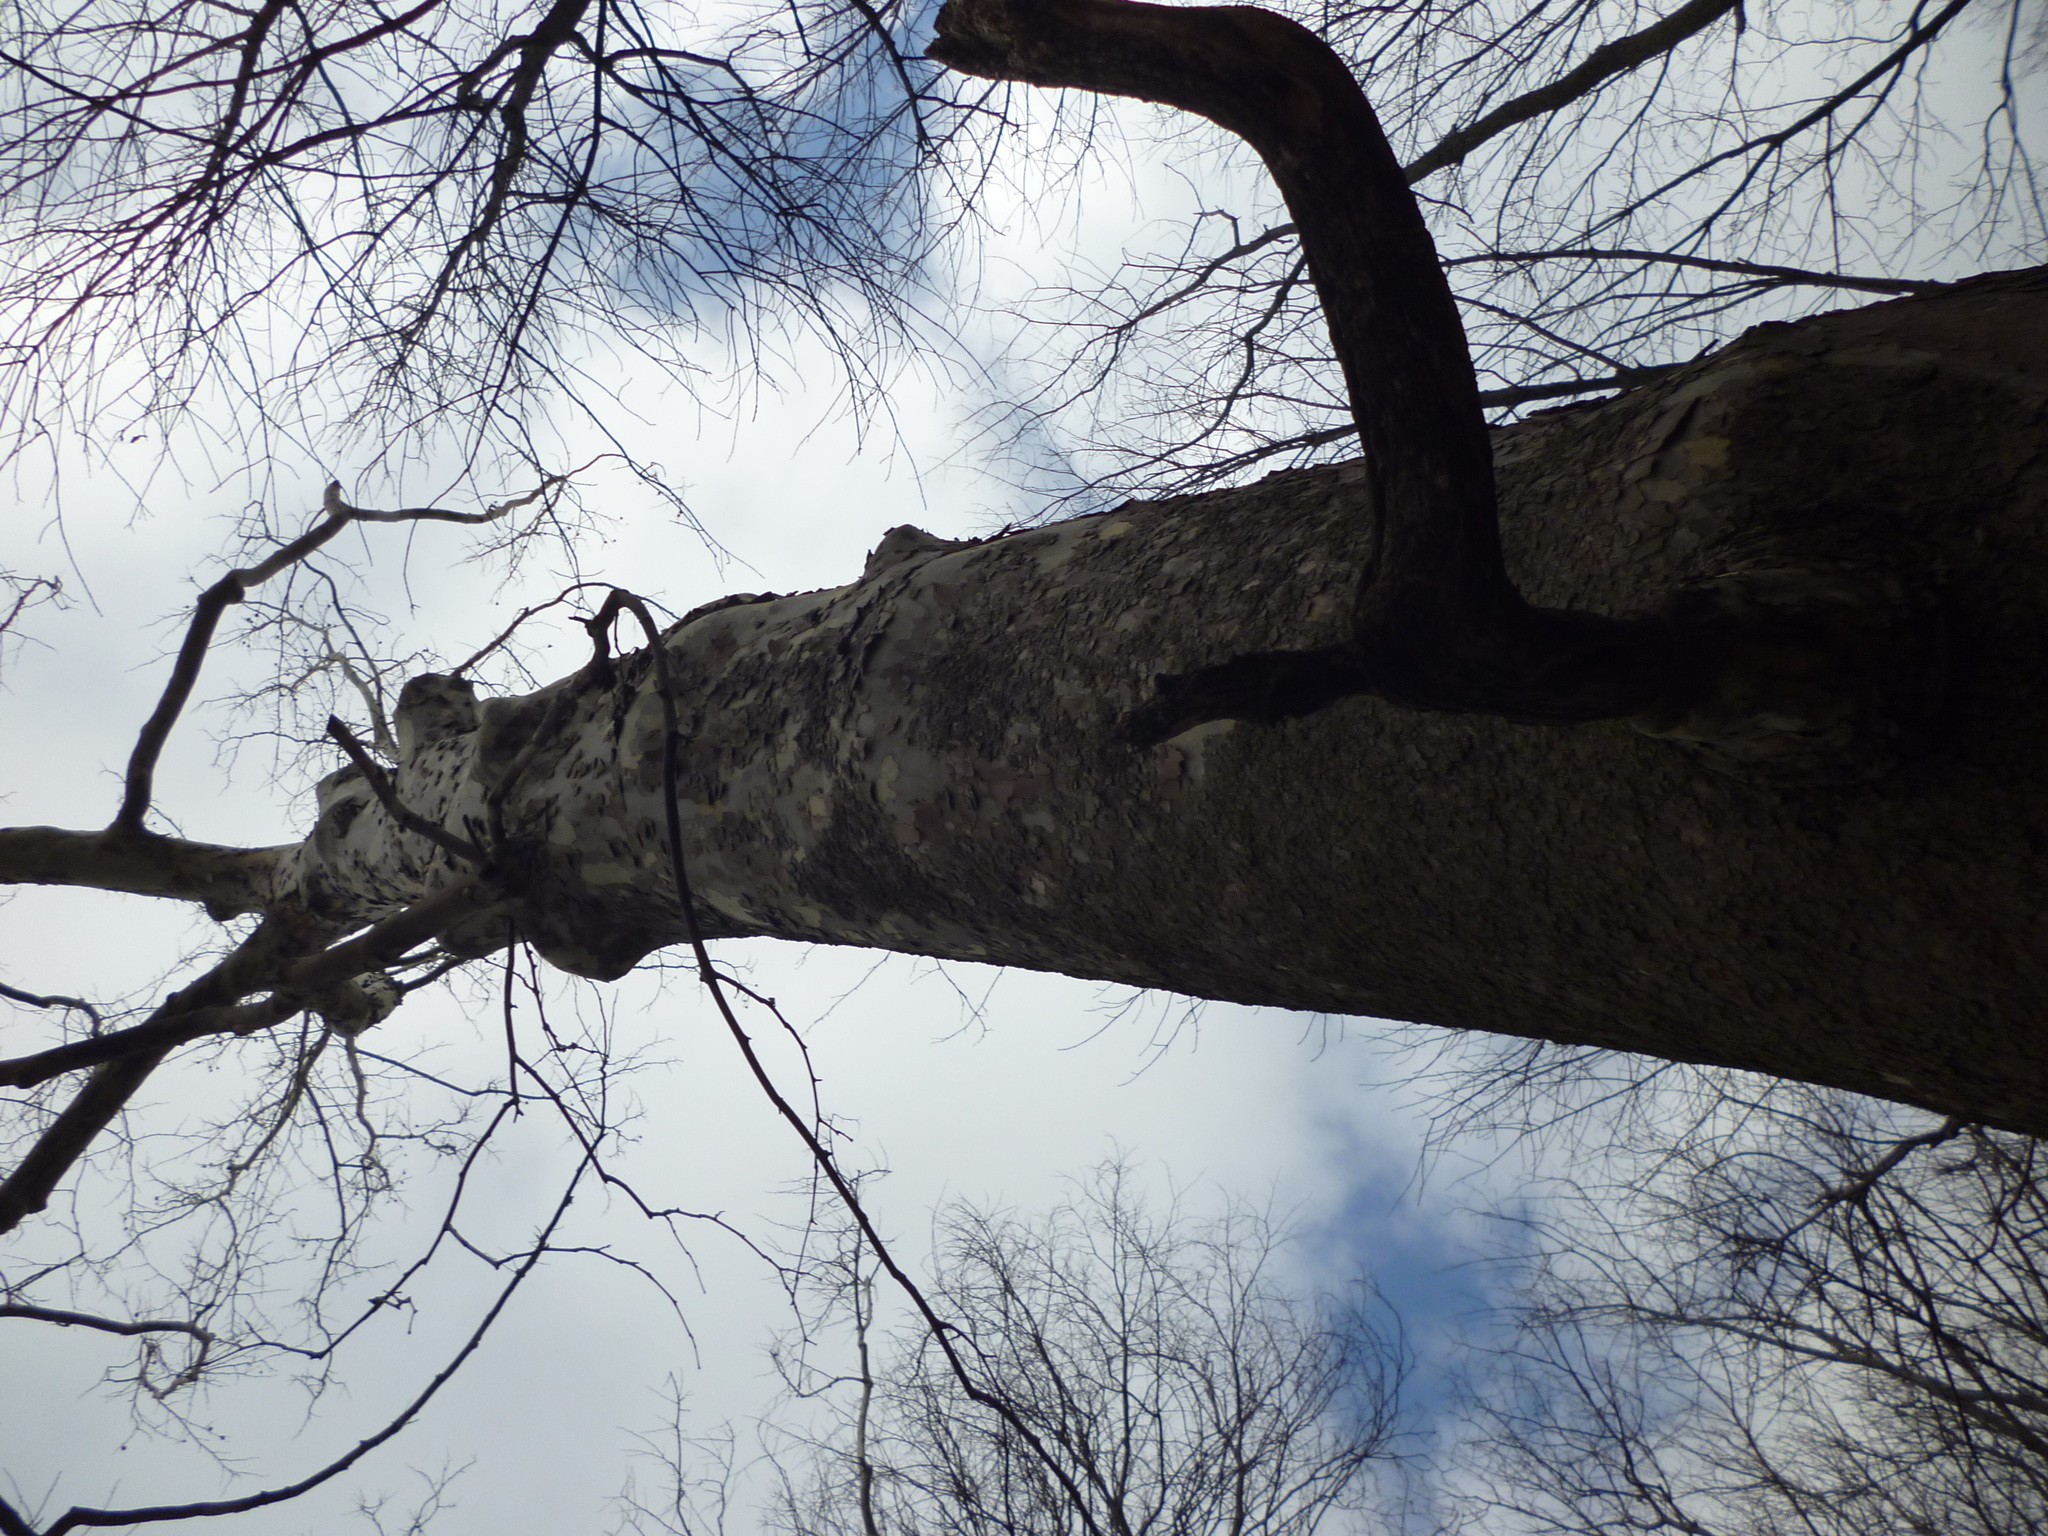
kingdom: Plantae
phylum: Tracheophyta
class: Magnoliopsida
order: Proteales
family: Platanaceae
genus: Platanus
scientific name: Platanus occidentalis
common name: American sycamore
